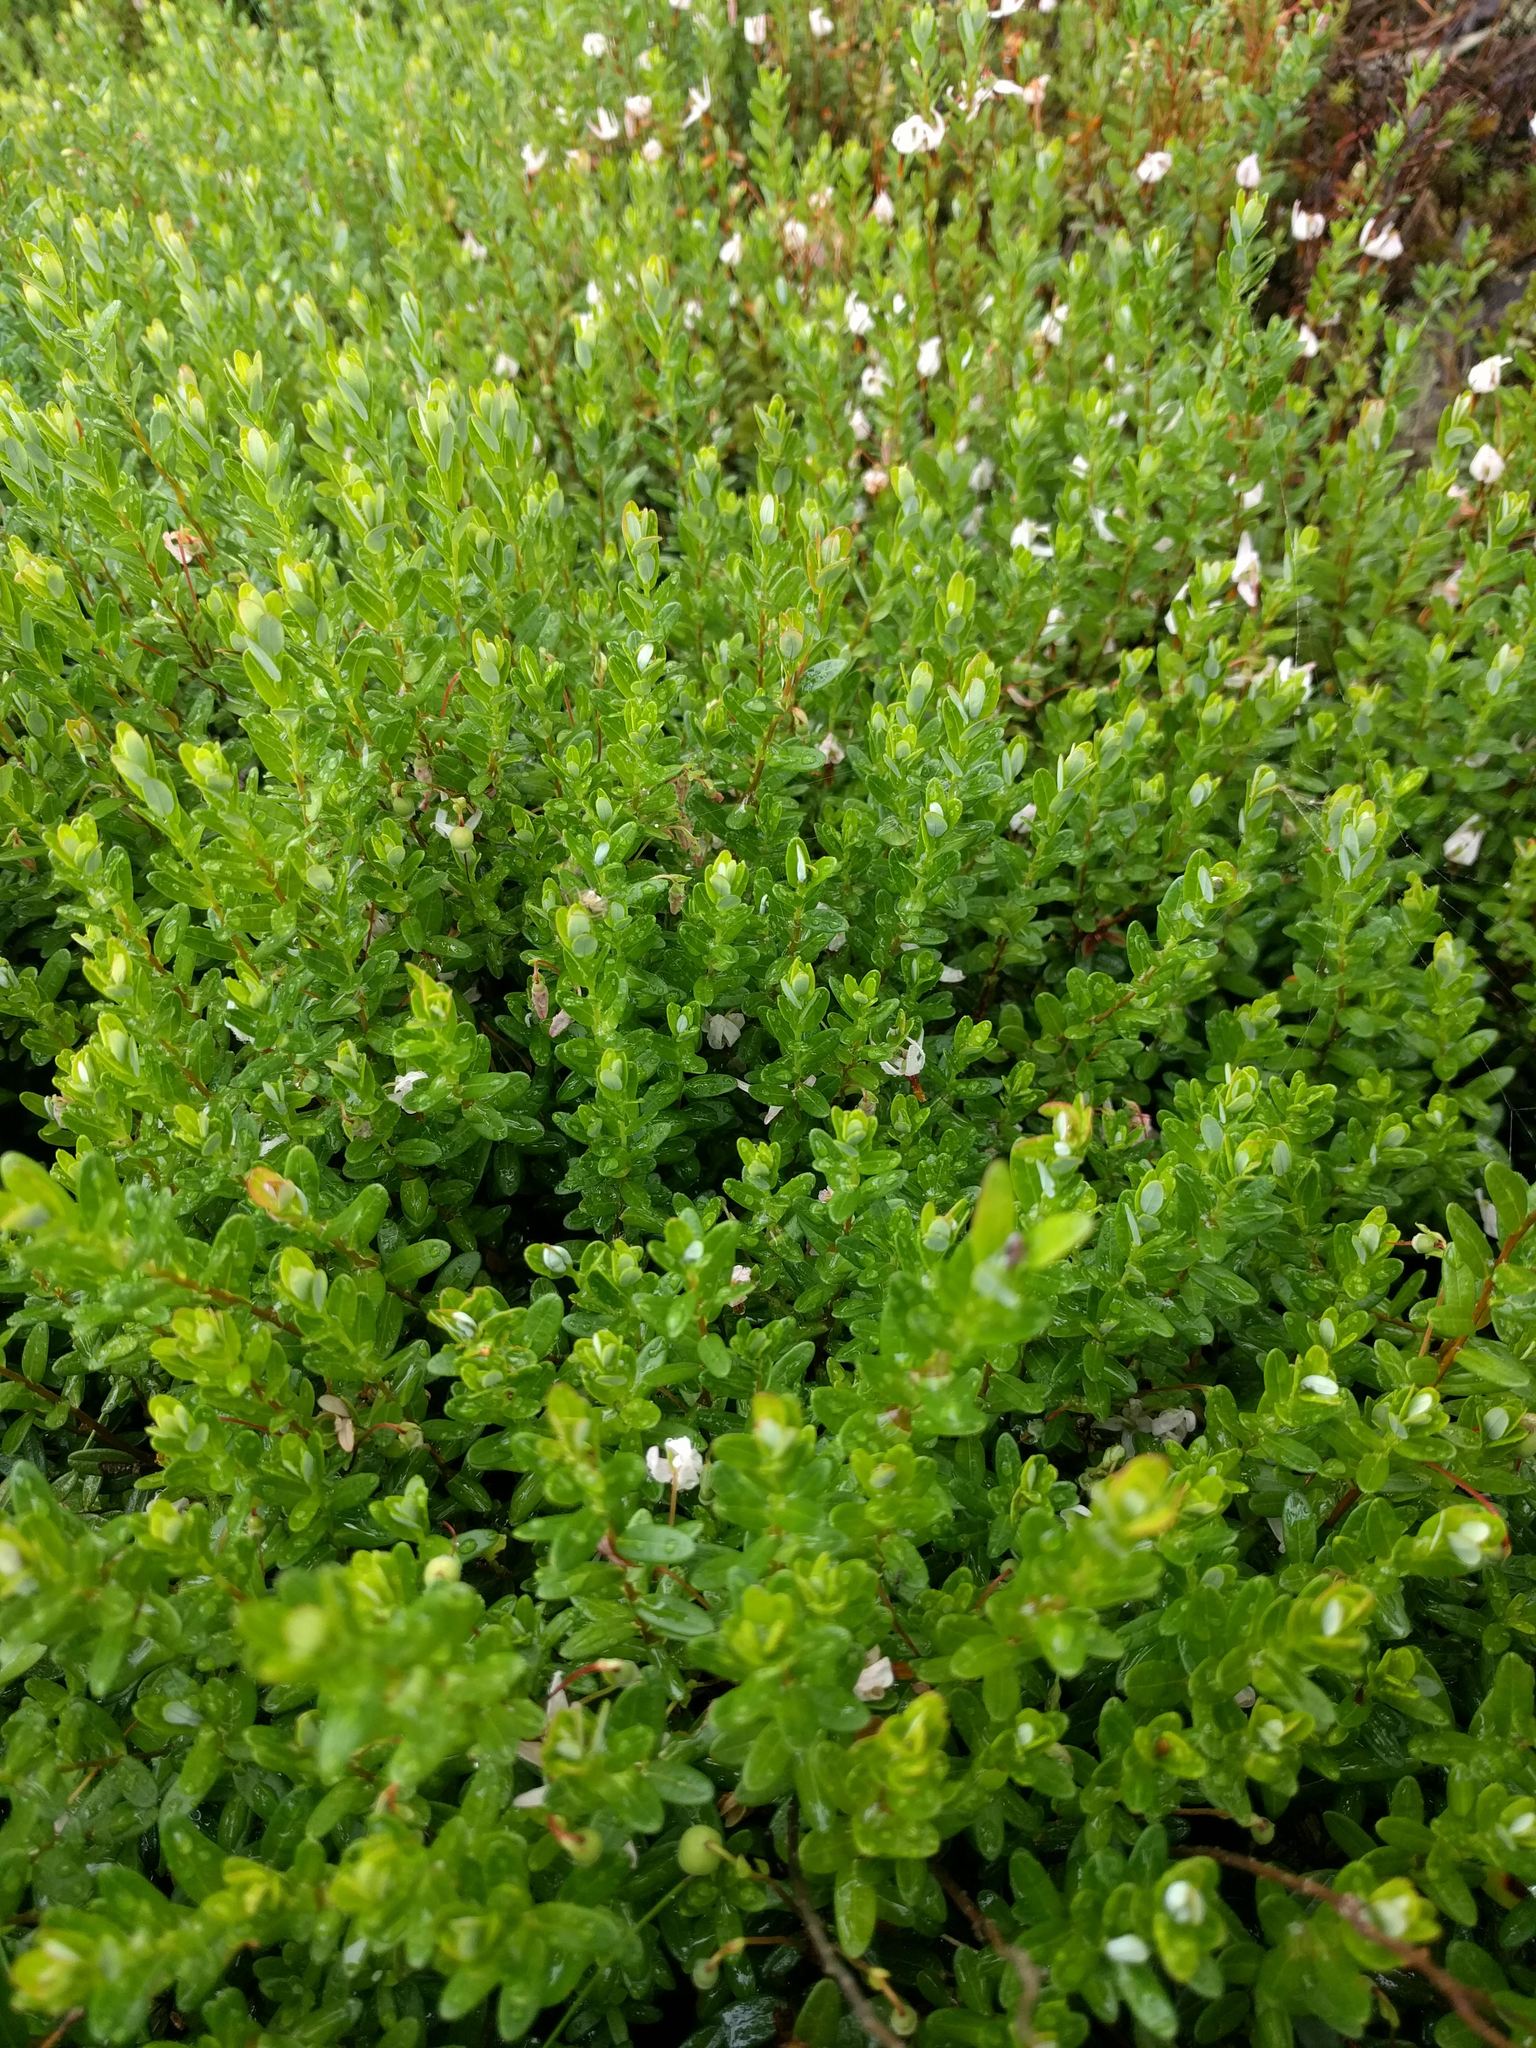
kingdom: Plantae
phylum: Tracheophyta
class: Magnoliopsida
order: Ericales
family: Ericaceae
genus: Vaccinium
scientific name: Vaccinium macrocarpon
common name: American cranberry
